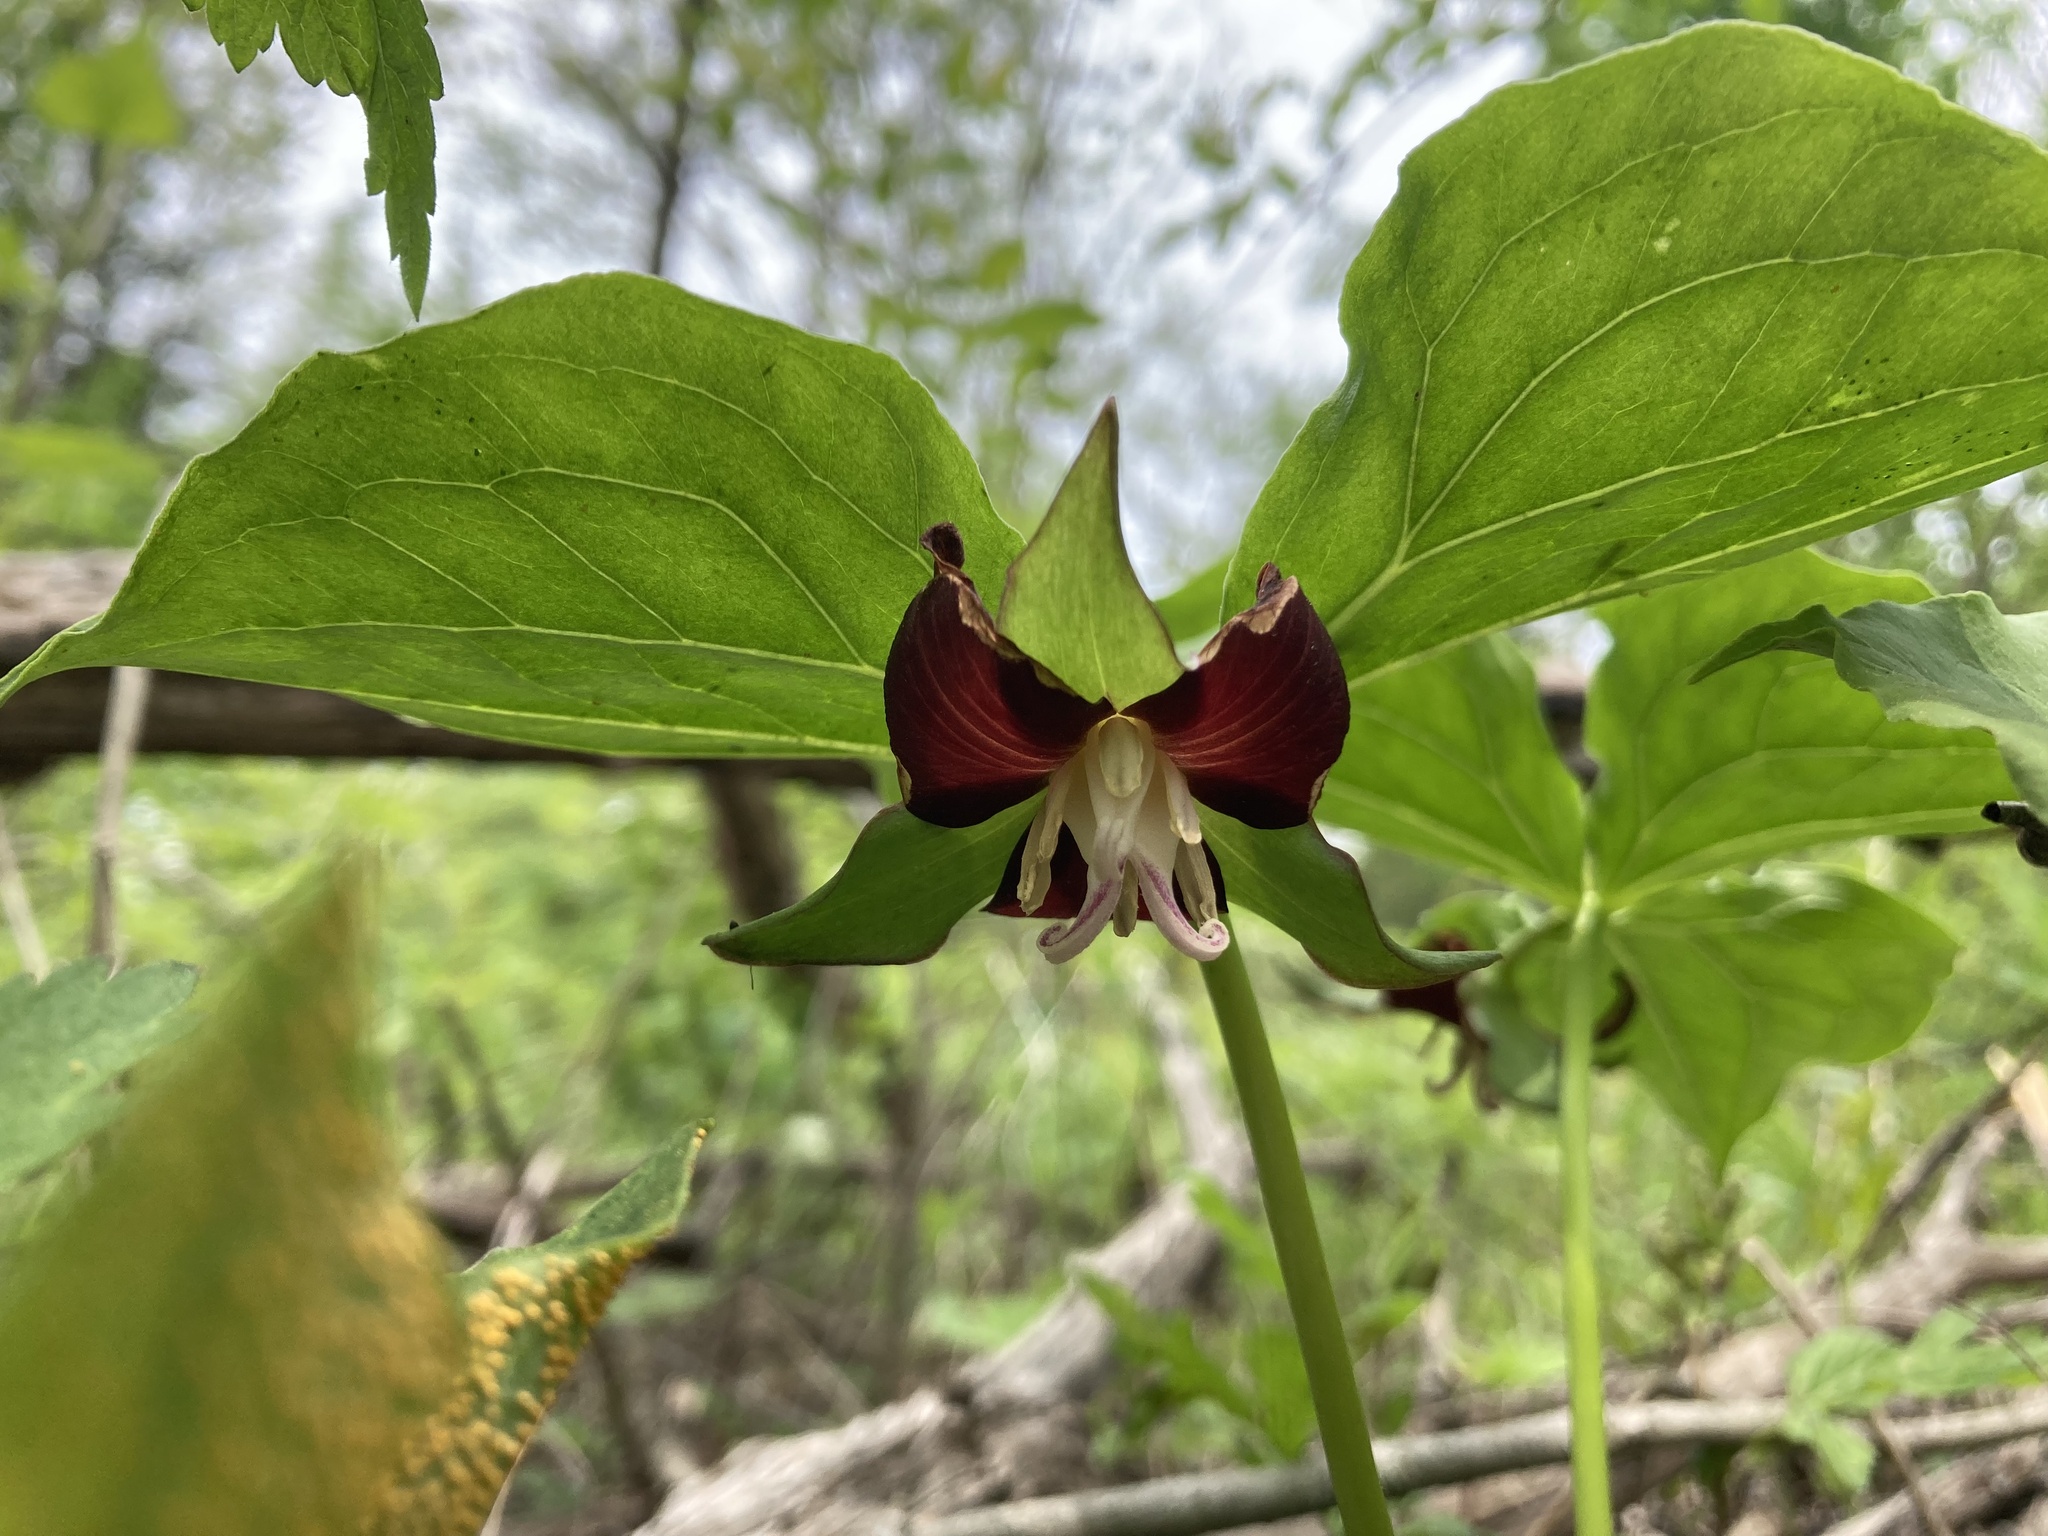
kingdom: Plantae
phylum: Tracheophyta
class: Liliopsida
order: Liliales
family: Melanthiaceae
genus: Trillium
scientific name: Trillium flexipes
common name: Drooping trillium
